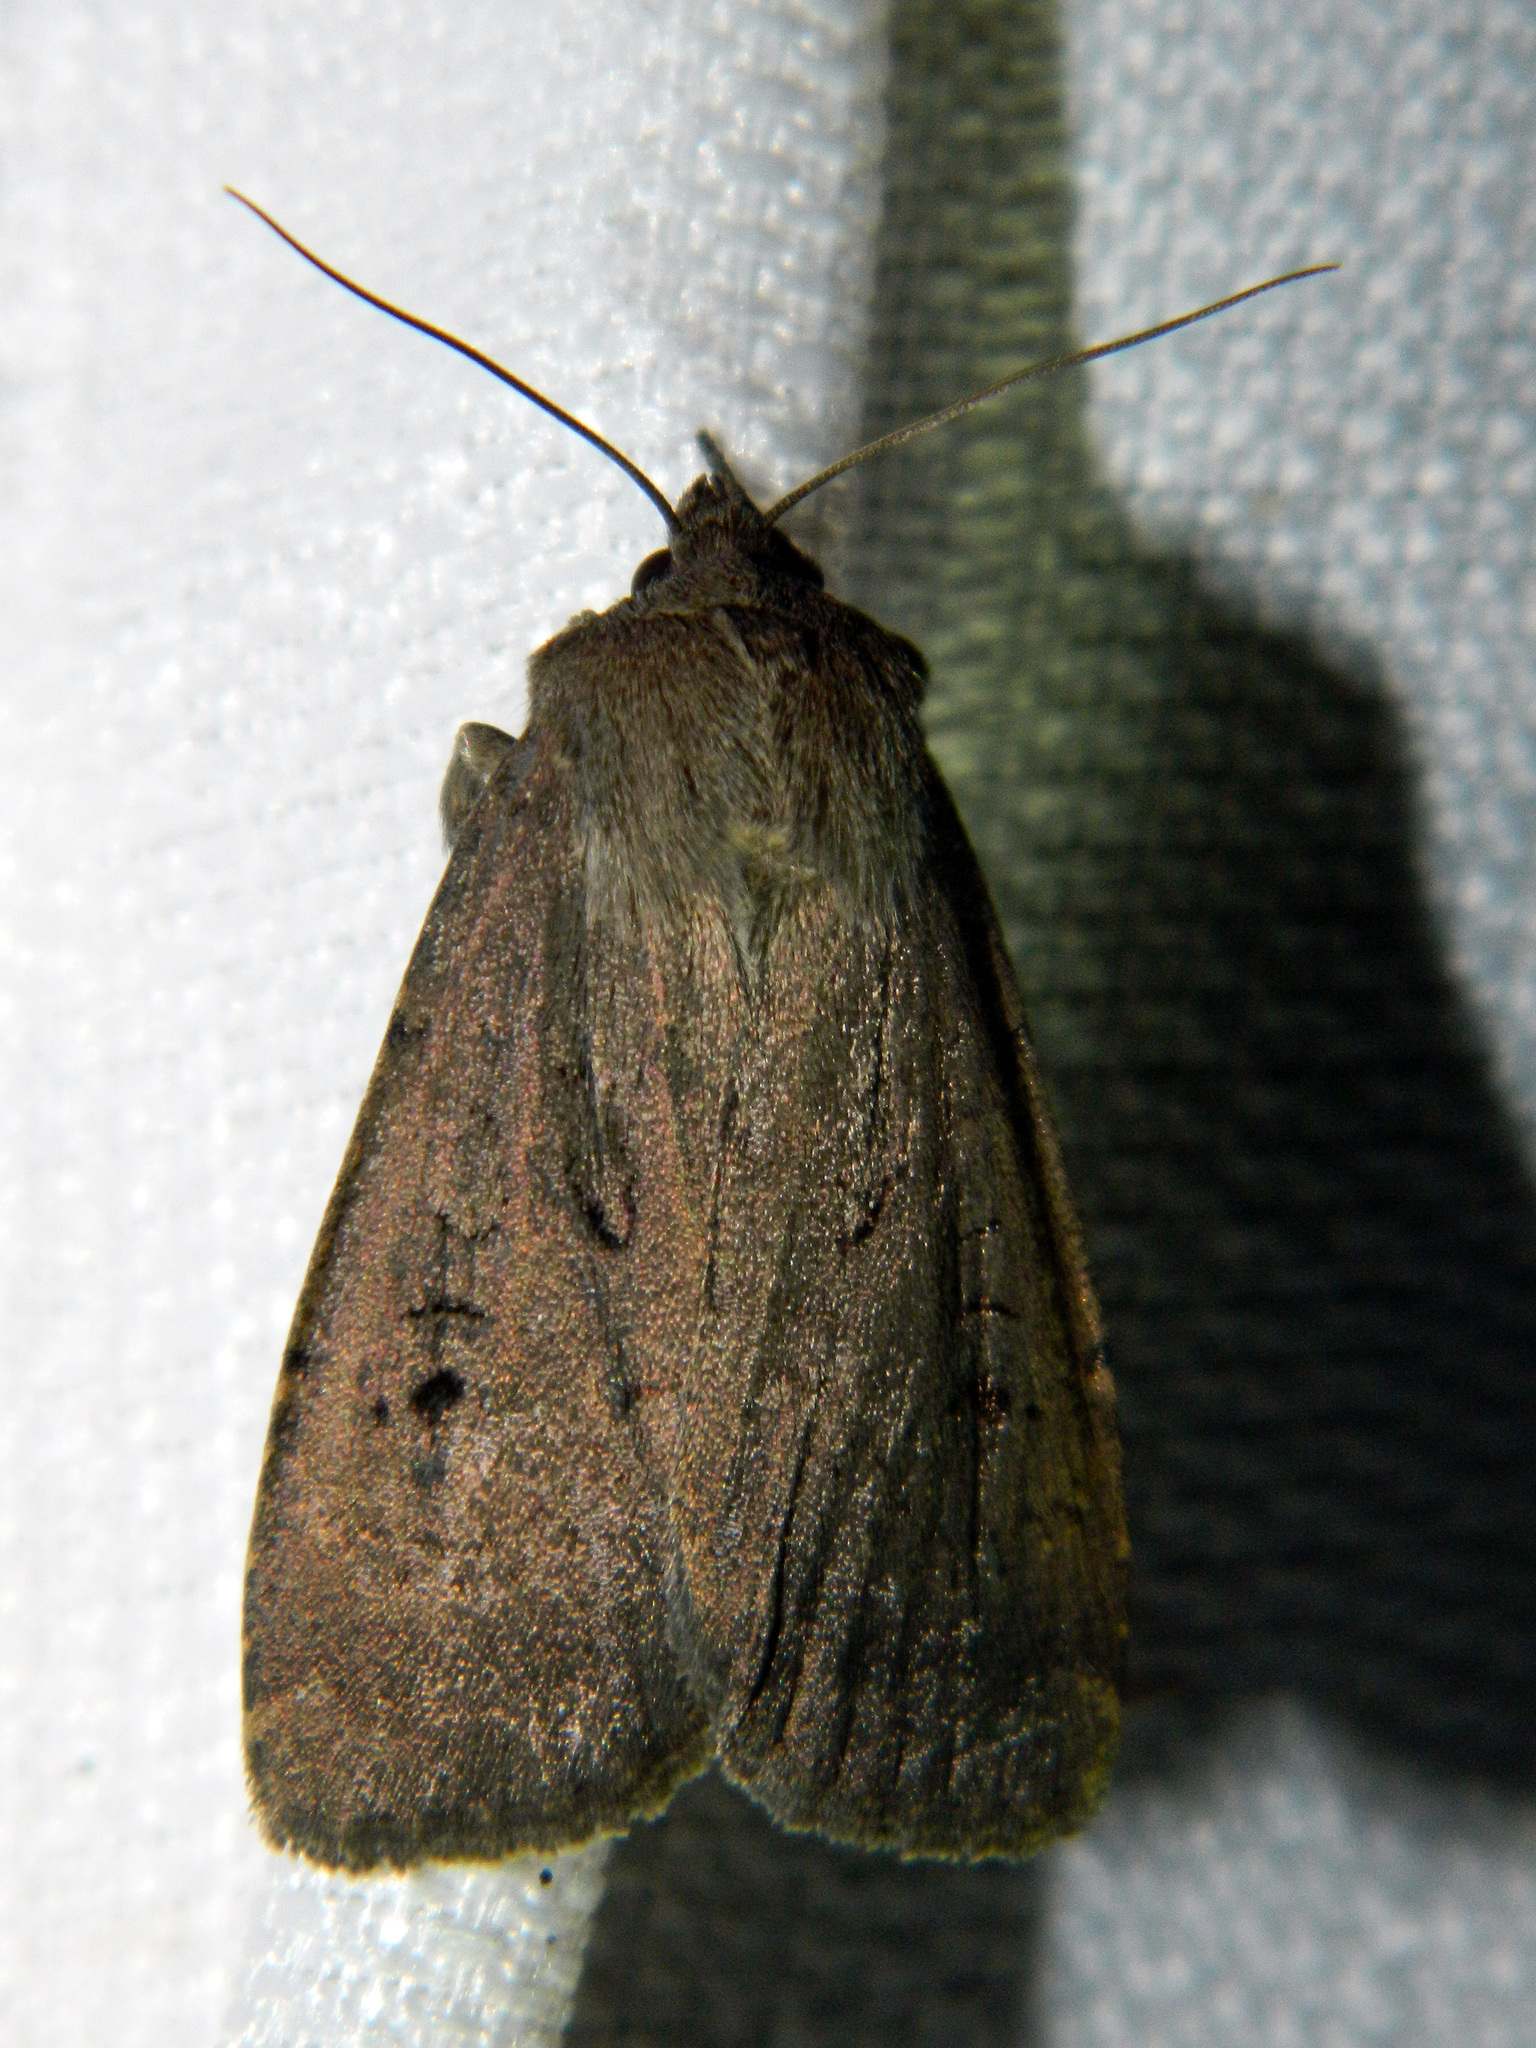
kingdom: Animalia
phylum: Arthropoda
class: Insecta
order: Lepidoptera
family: Noctuidae
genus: Graphiphora
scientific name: Graphiphora augur
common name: Double dart
